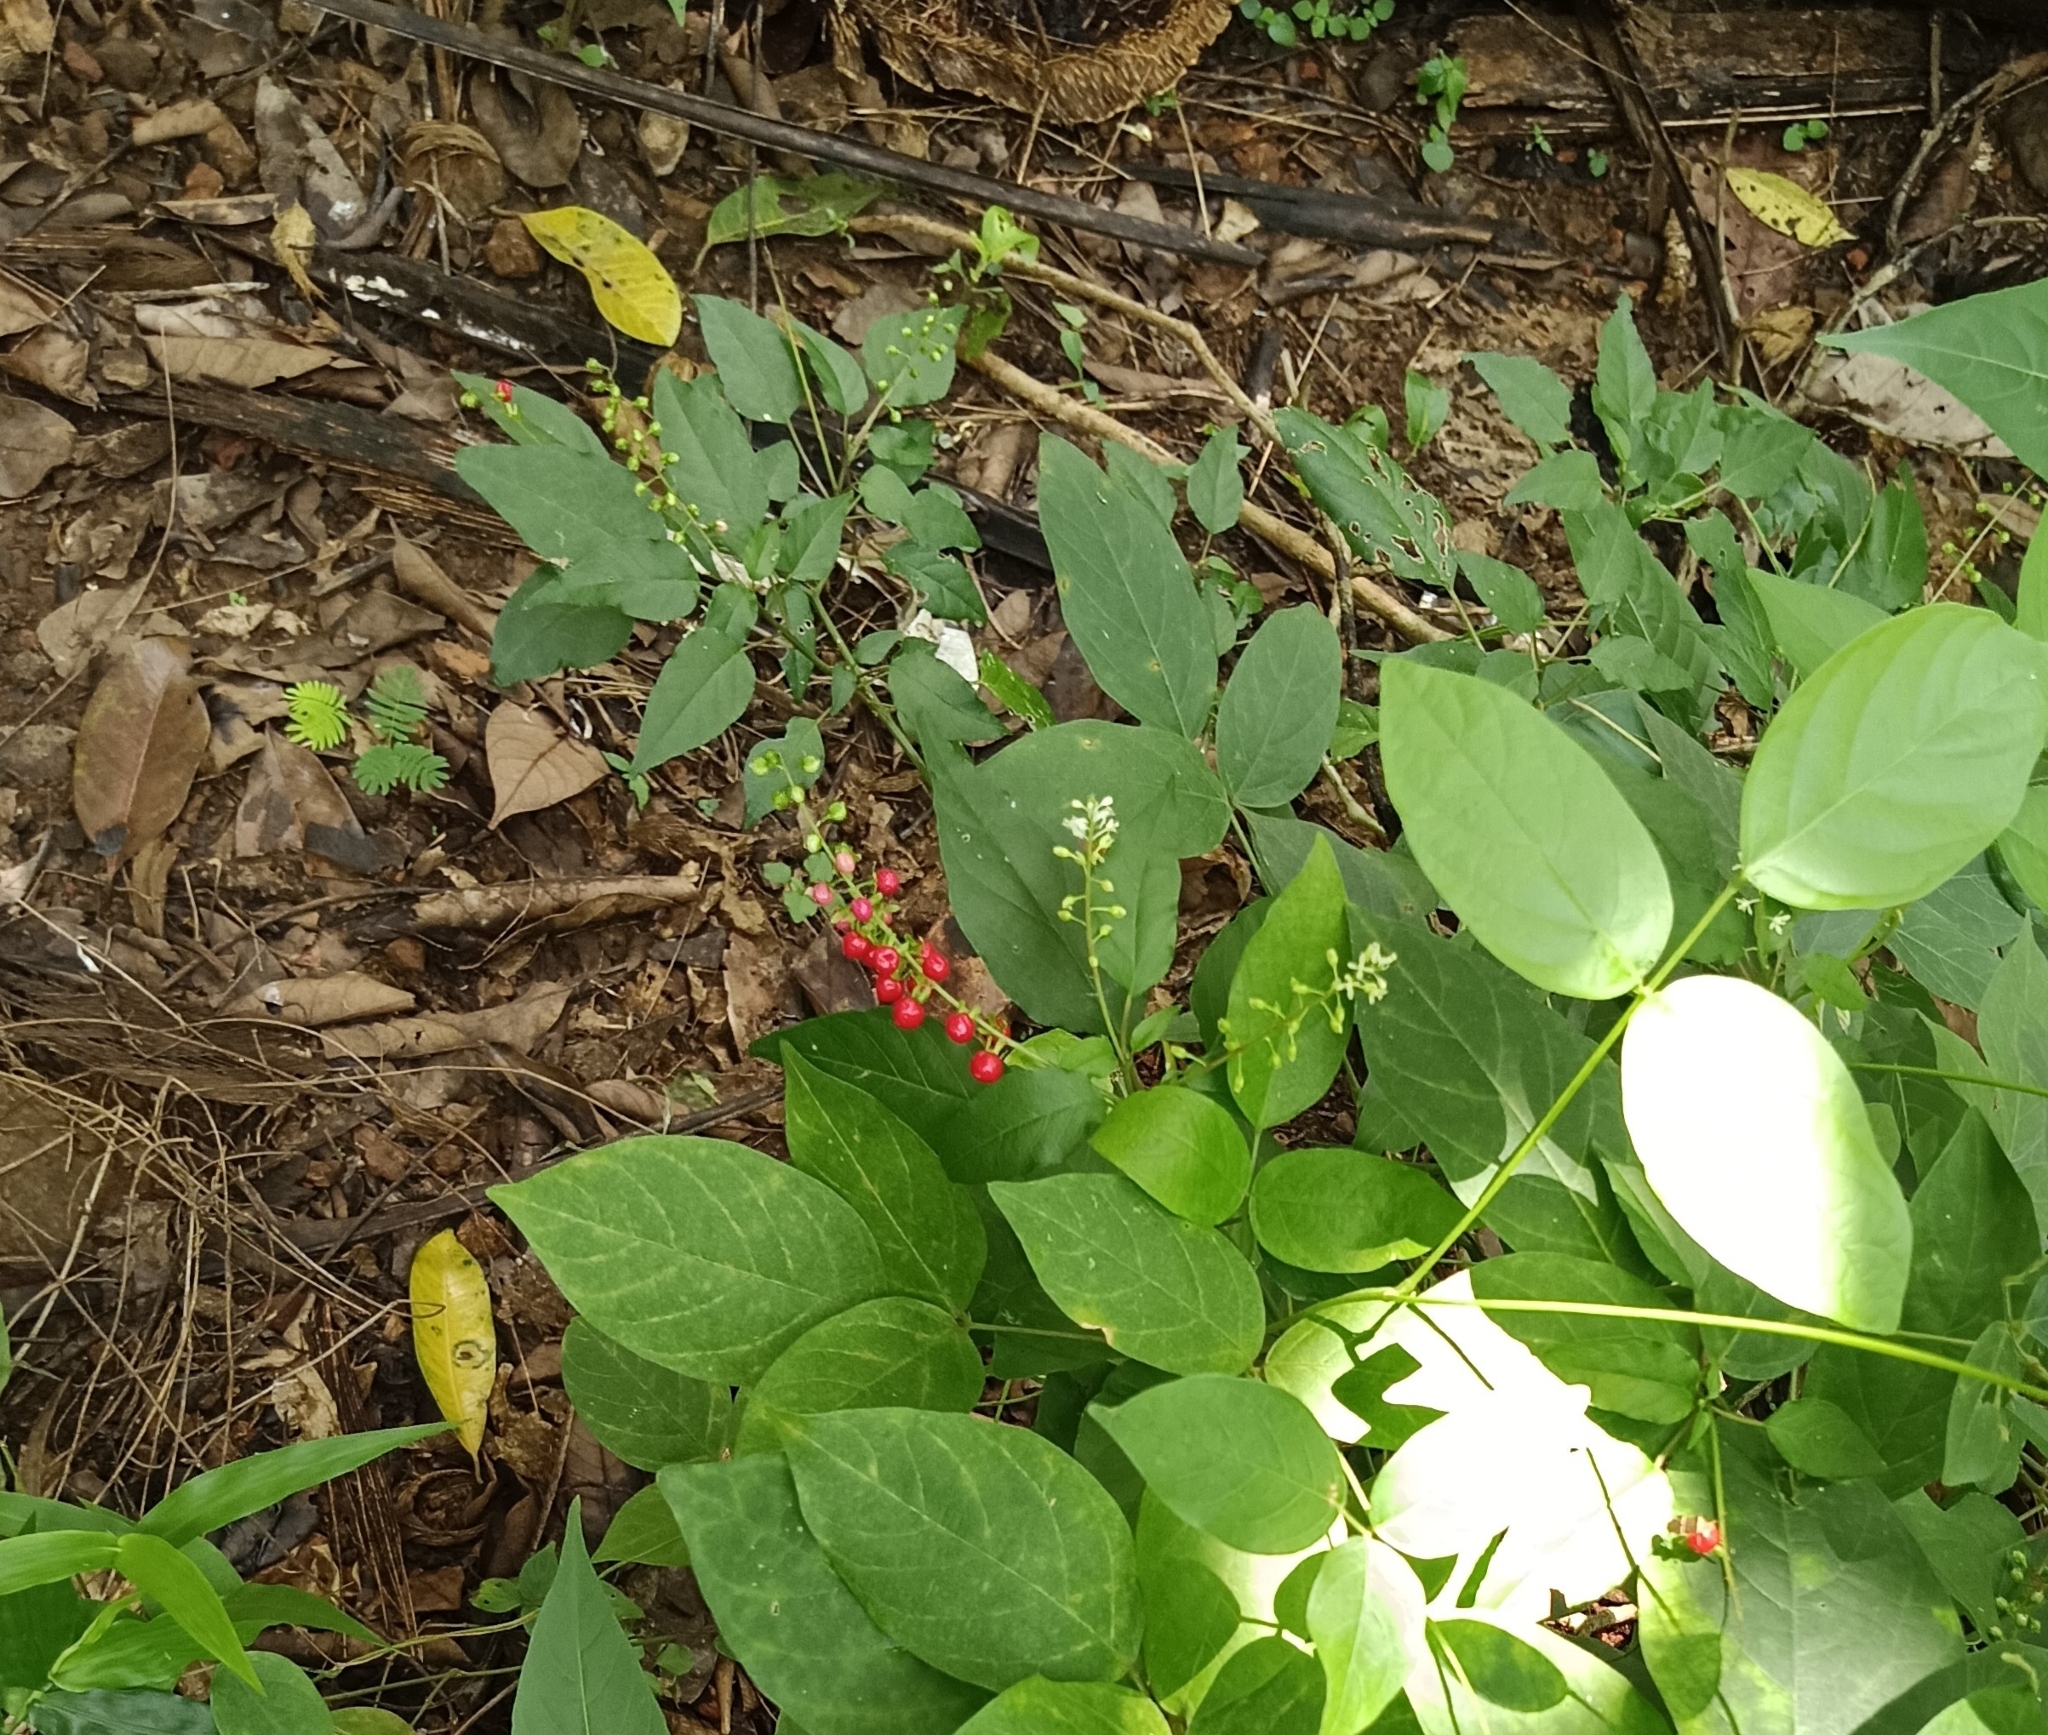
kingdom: Plantae
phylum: Tracheophyta
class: Magnoliopsida
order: Caryophyllales
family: Phytolaccaceae
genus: Rivina
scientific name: Rivina humilis
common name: Rougeplant
